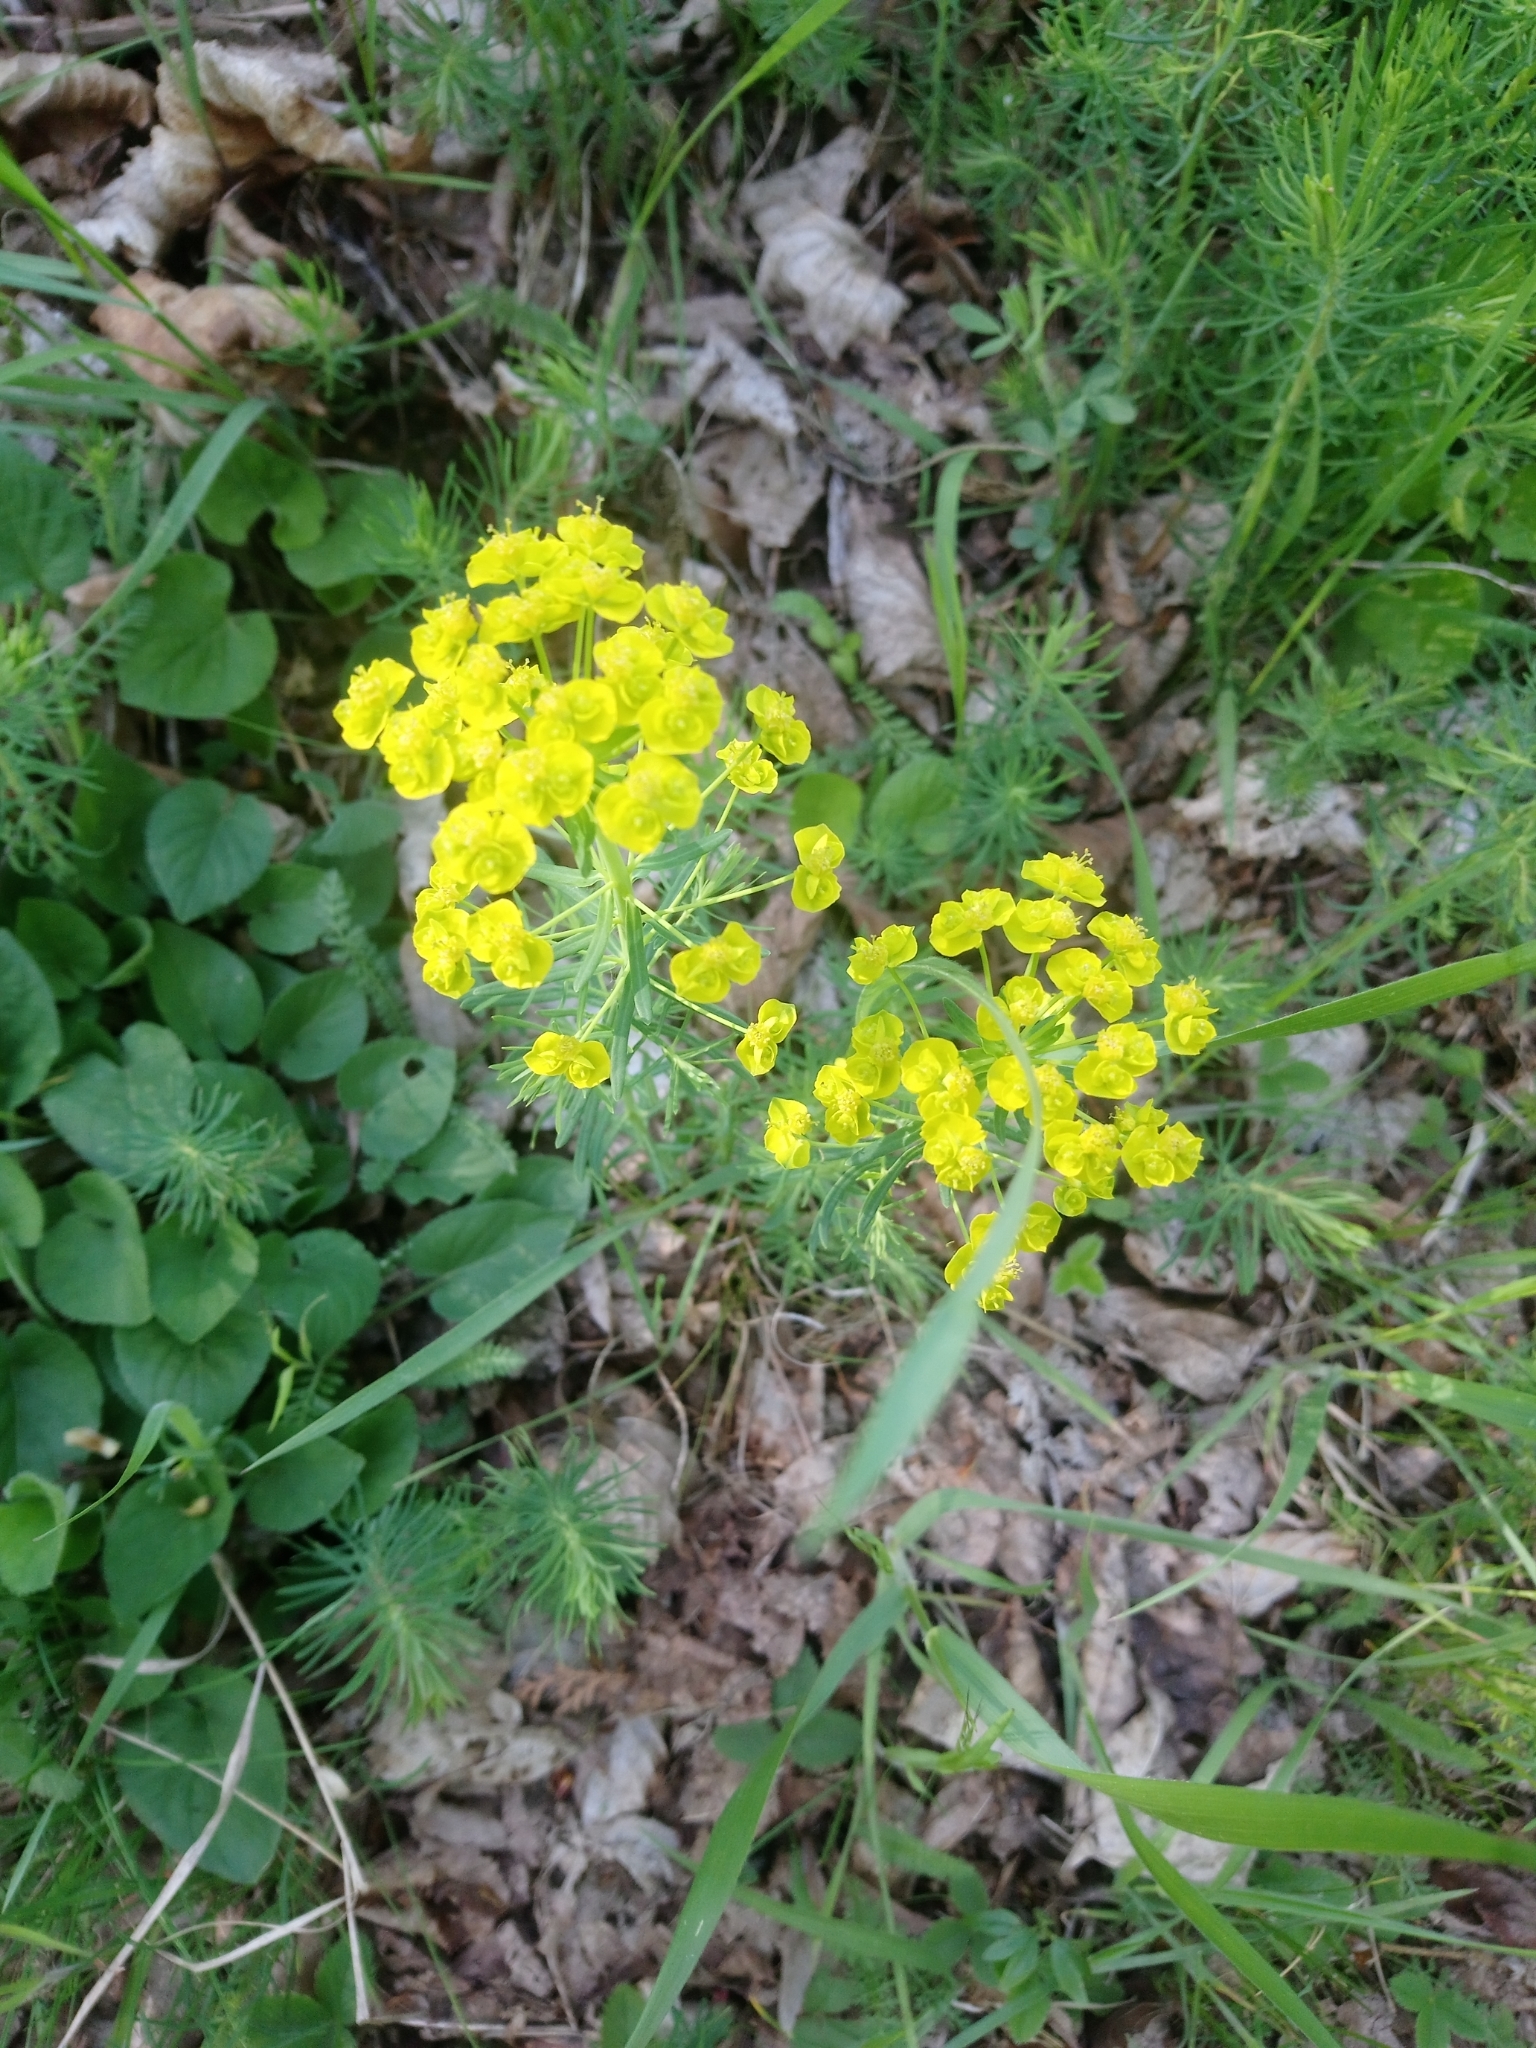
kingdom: Plantae
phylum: Tracheophyta
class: Magnoliopsida
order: Malpighiales
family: Euphorbiaceae
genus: Euphorbia
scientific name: Euphorbia cyparissias
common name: Cypress spurge
